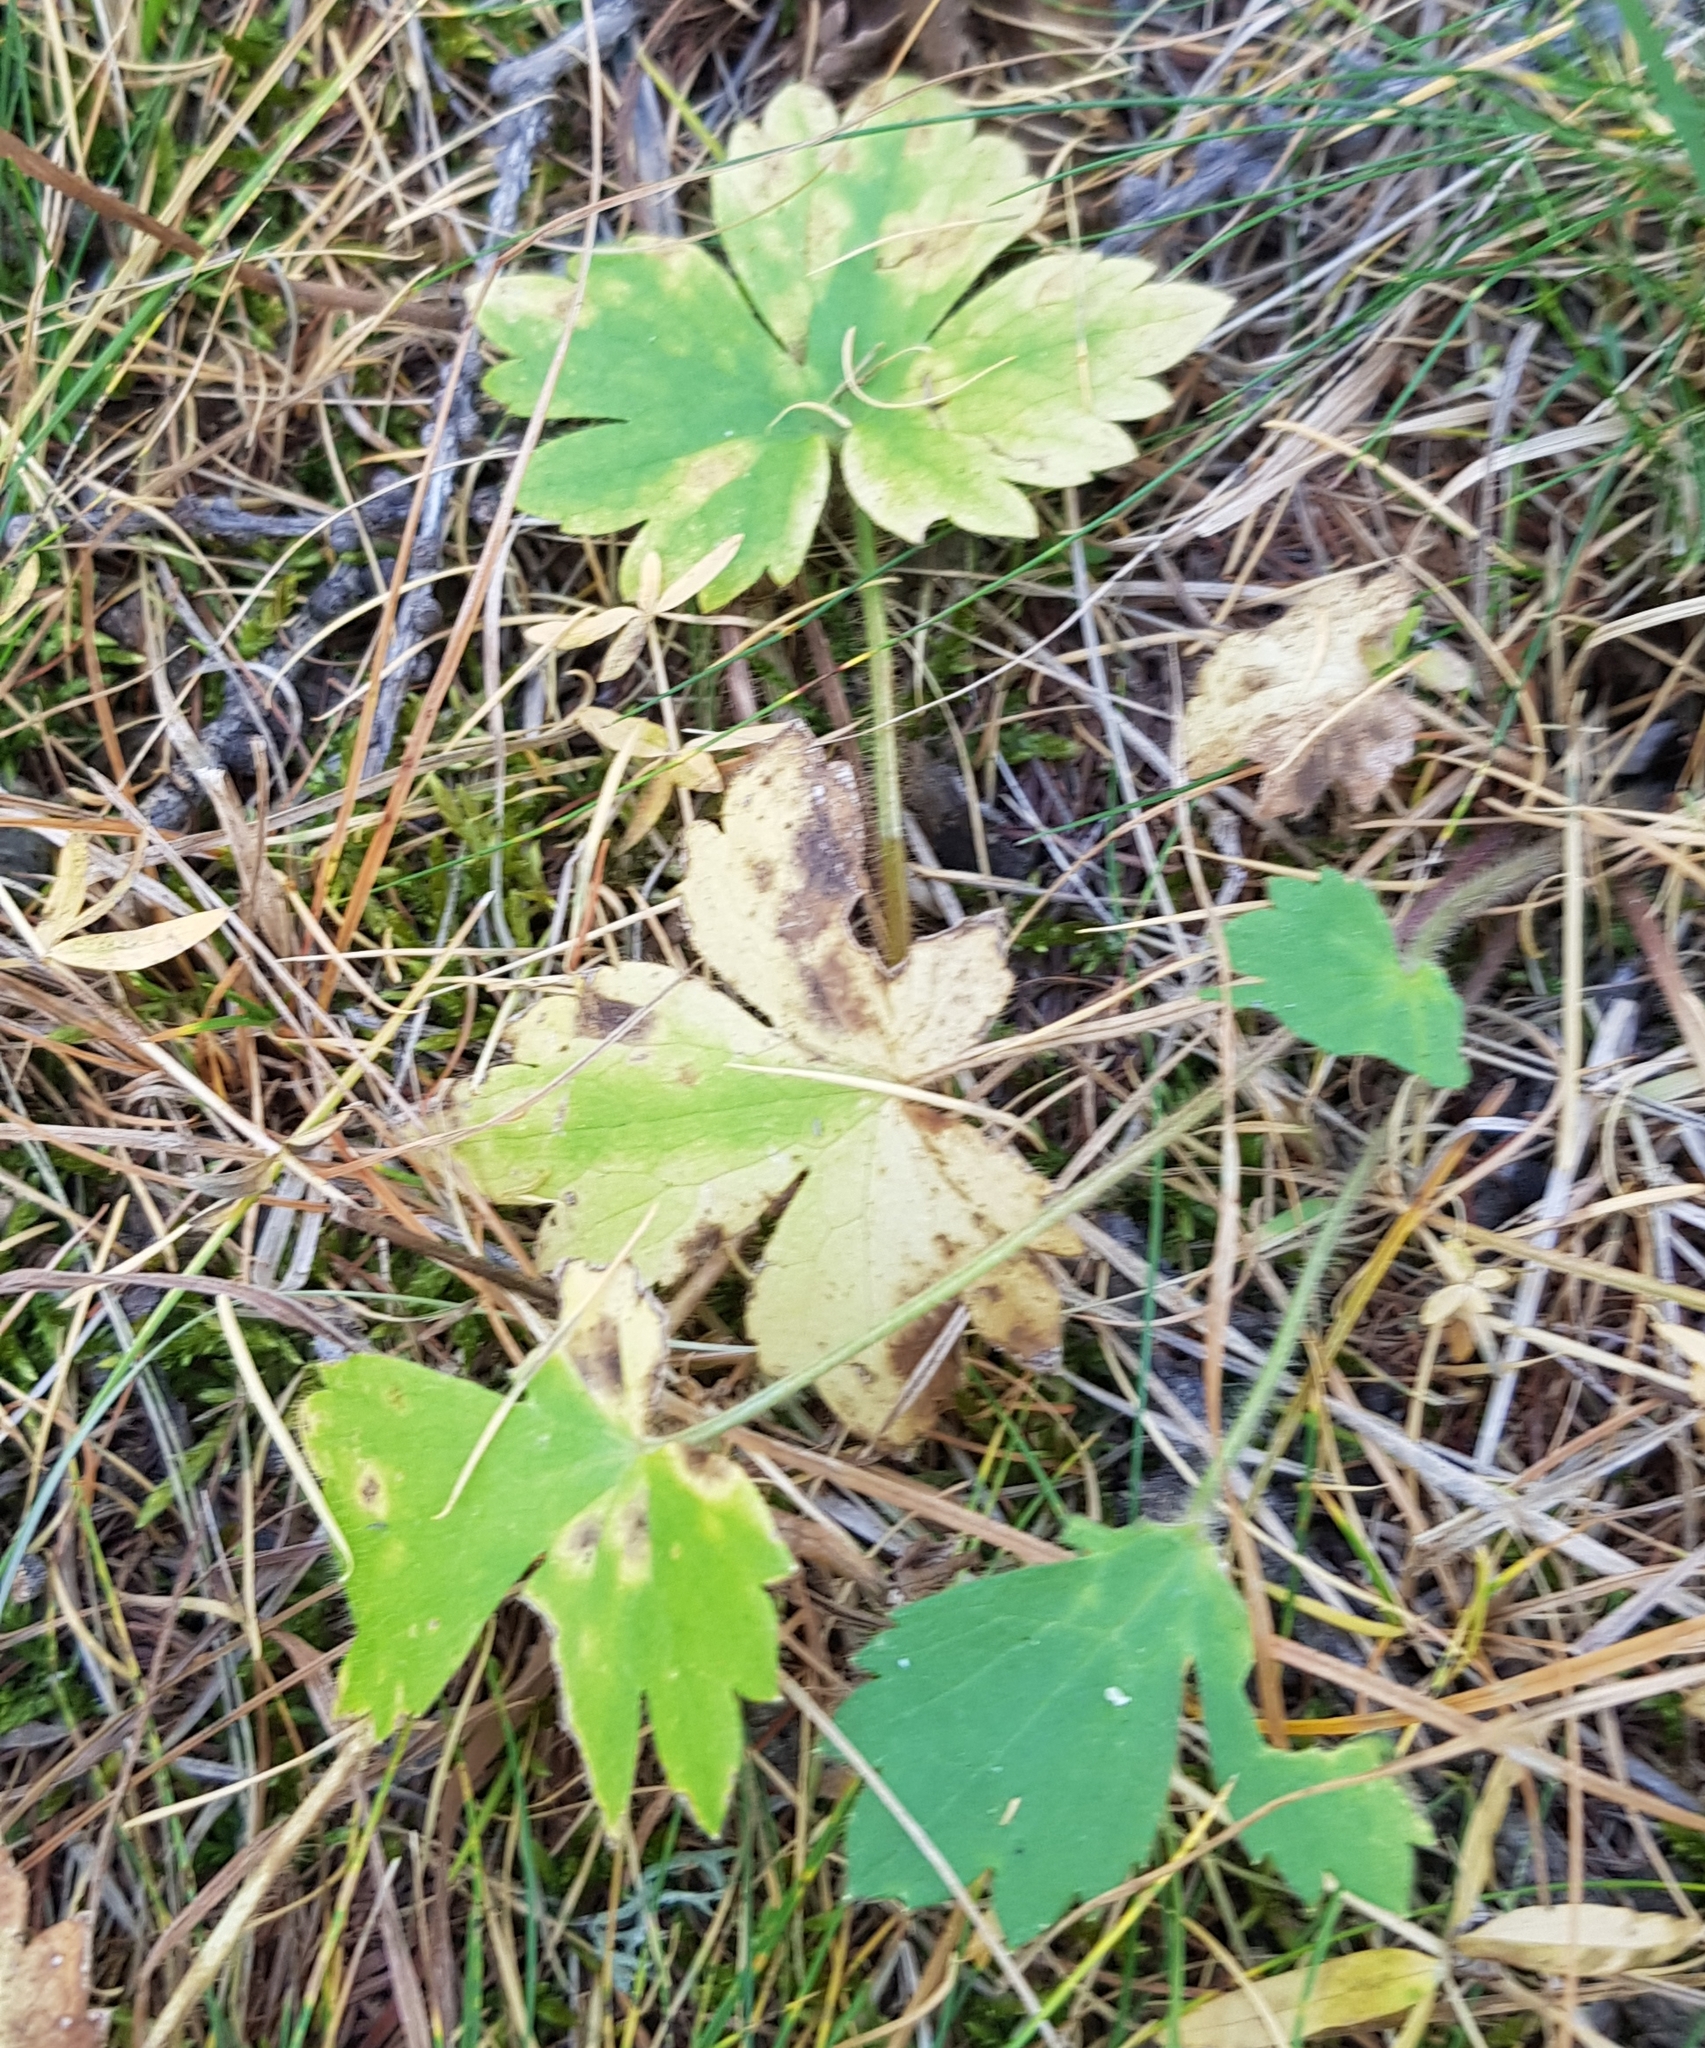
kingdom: Plantae
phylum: Tracheophyta
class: Magnoliopsida
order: Ranunculales
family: Ranunculaceae
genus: Ranunculus
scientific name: Ranunculus japonicus
